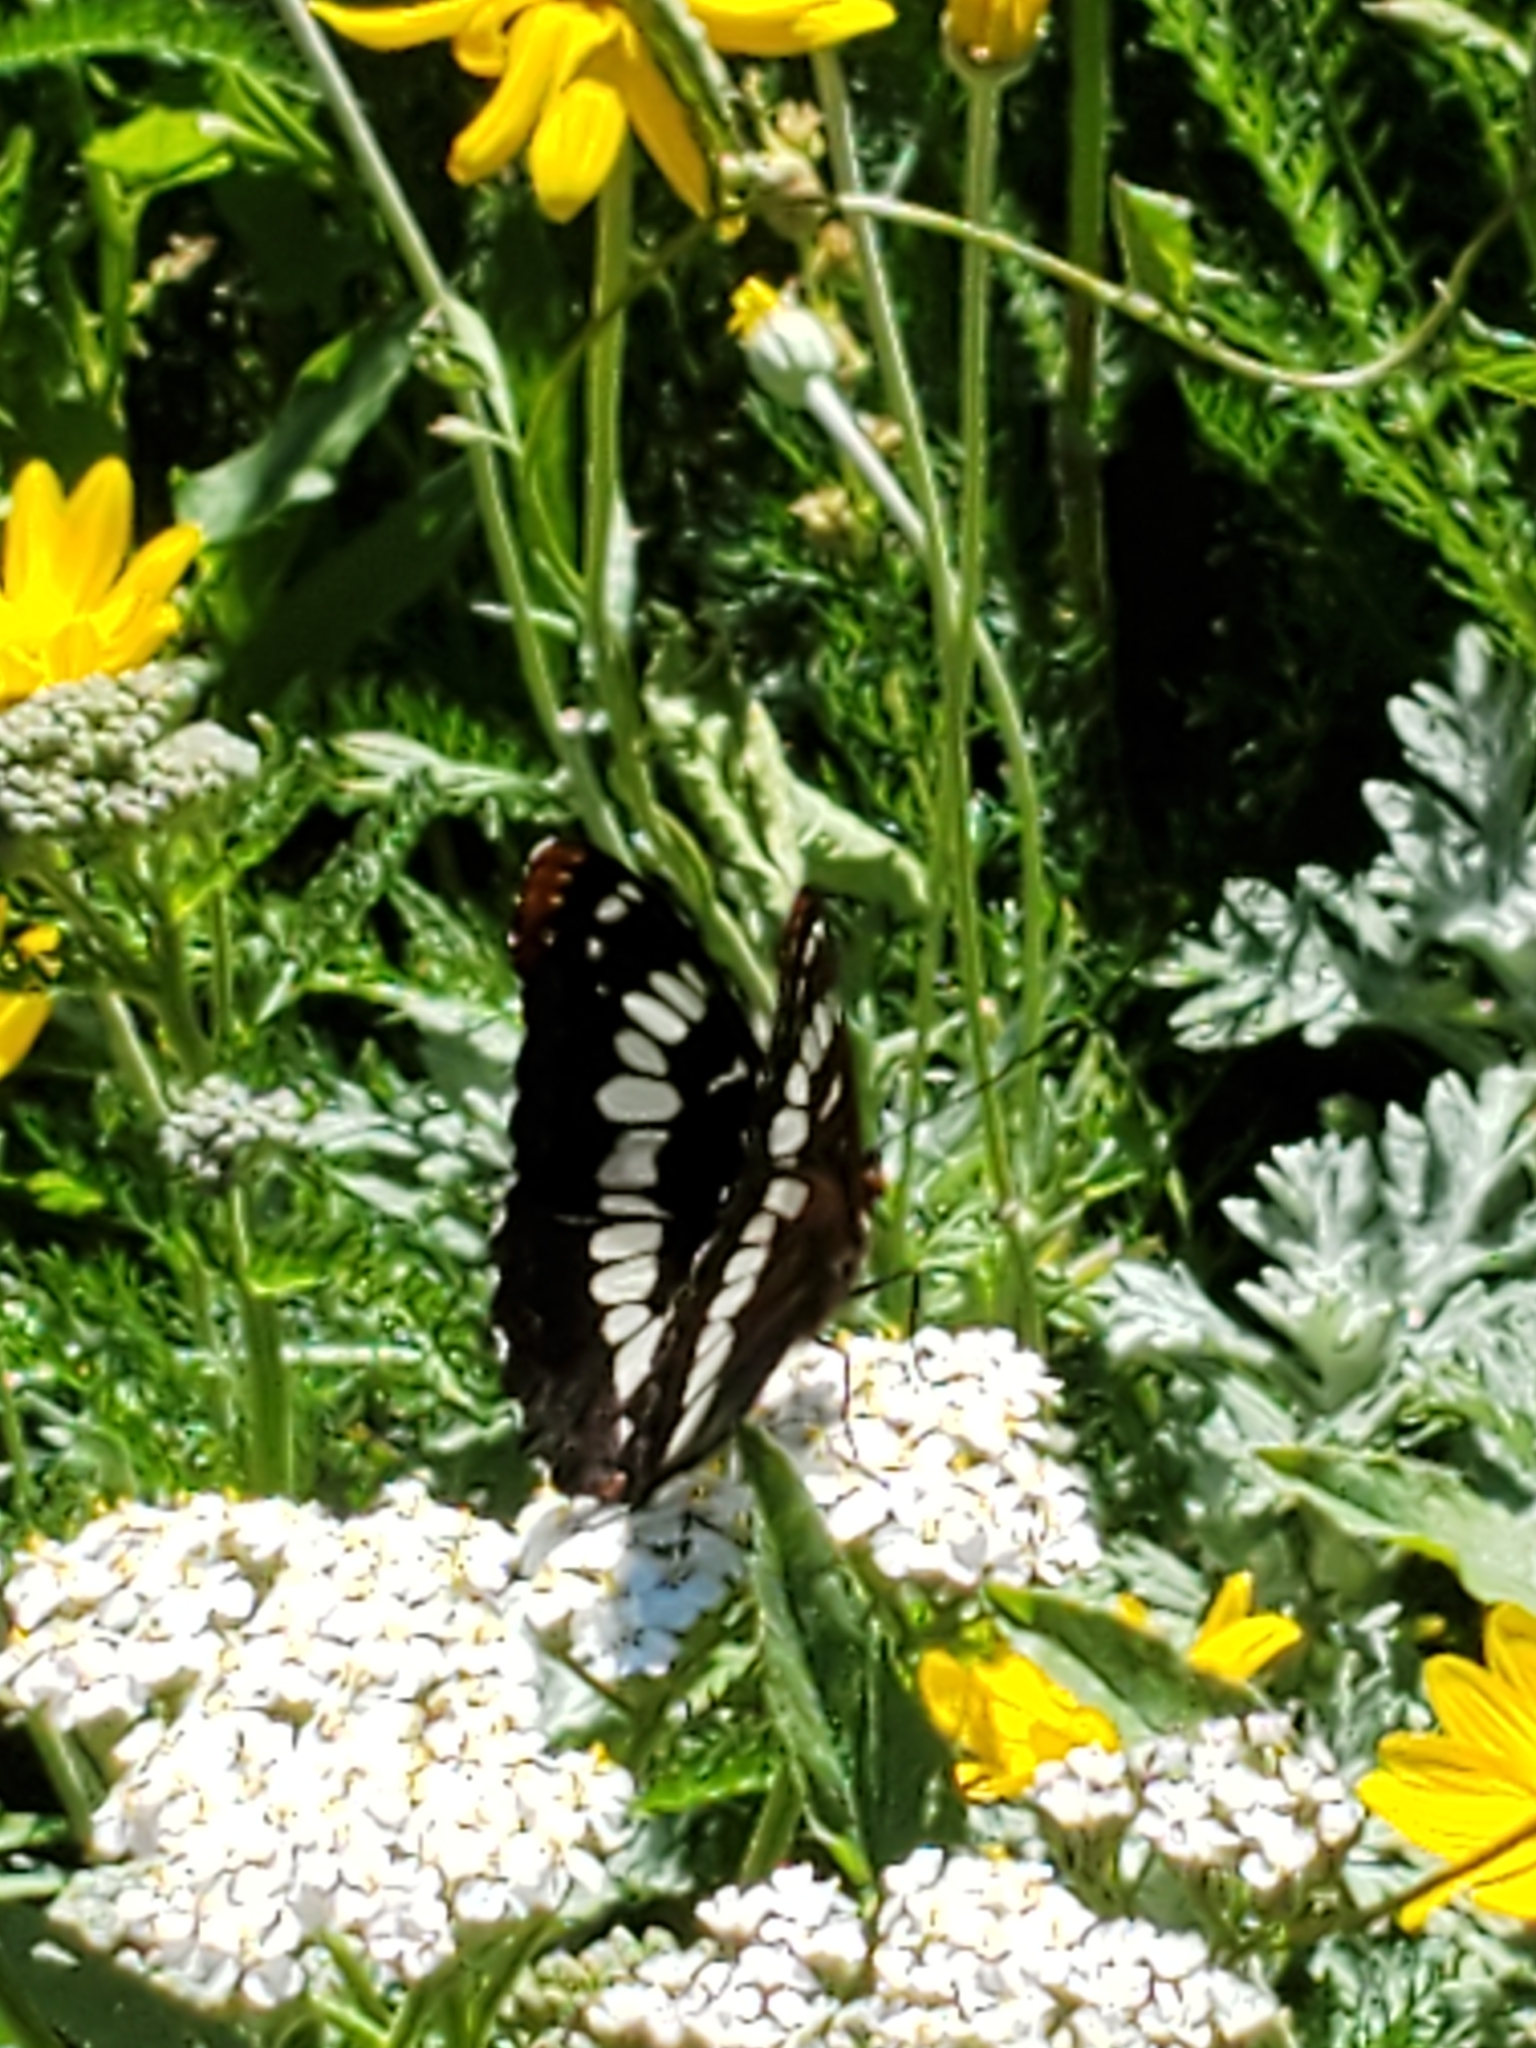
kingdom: Animalia
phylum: Arthropoda
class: Insecta
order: Lepidoptera
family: Nymphalidae
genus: Limenitis
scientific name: Limenitis lorquini
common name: Lorquin's admiral
